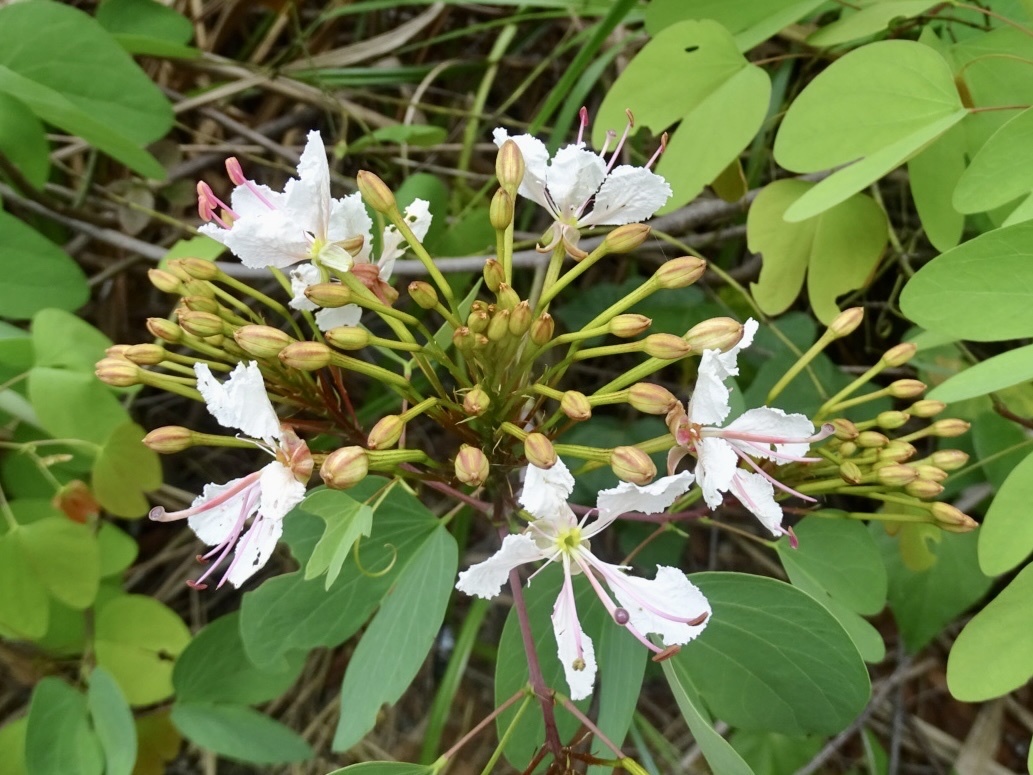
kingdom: Plantae
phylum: Tracheophyta
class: Magnoliopsida
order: Fabales
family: Fabaceae
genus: Cheniella
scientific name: Cheniella glauca
